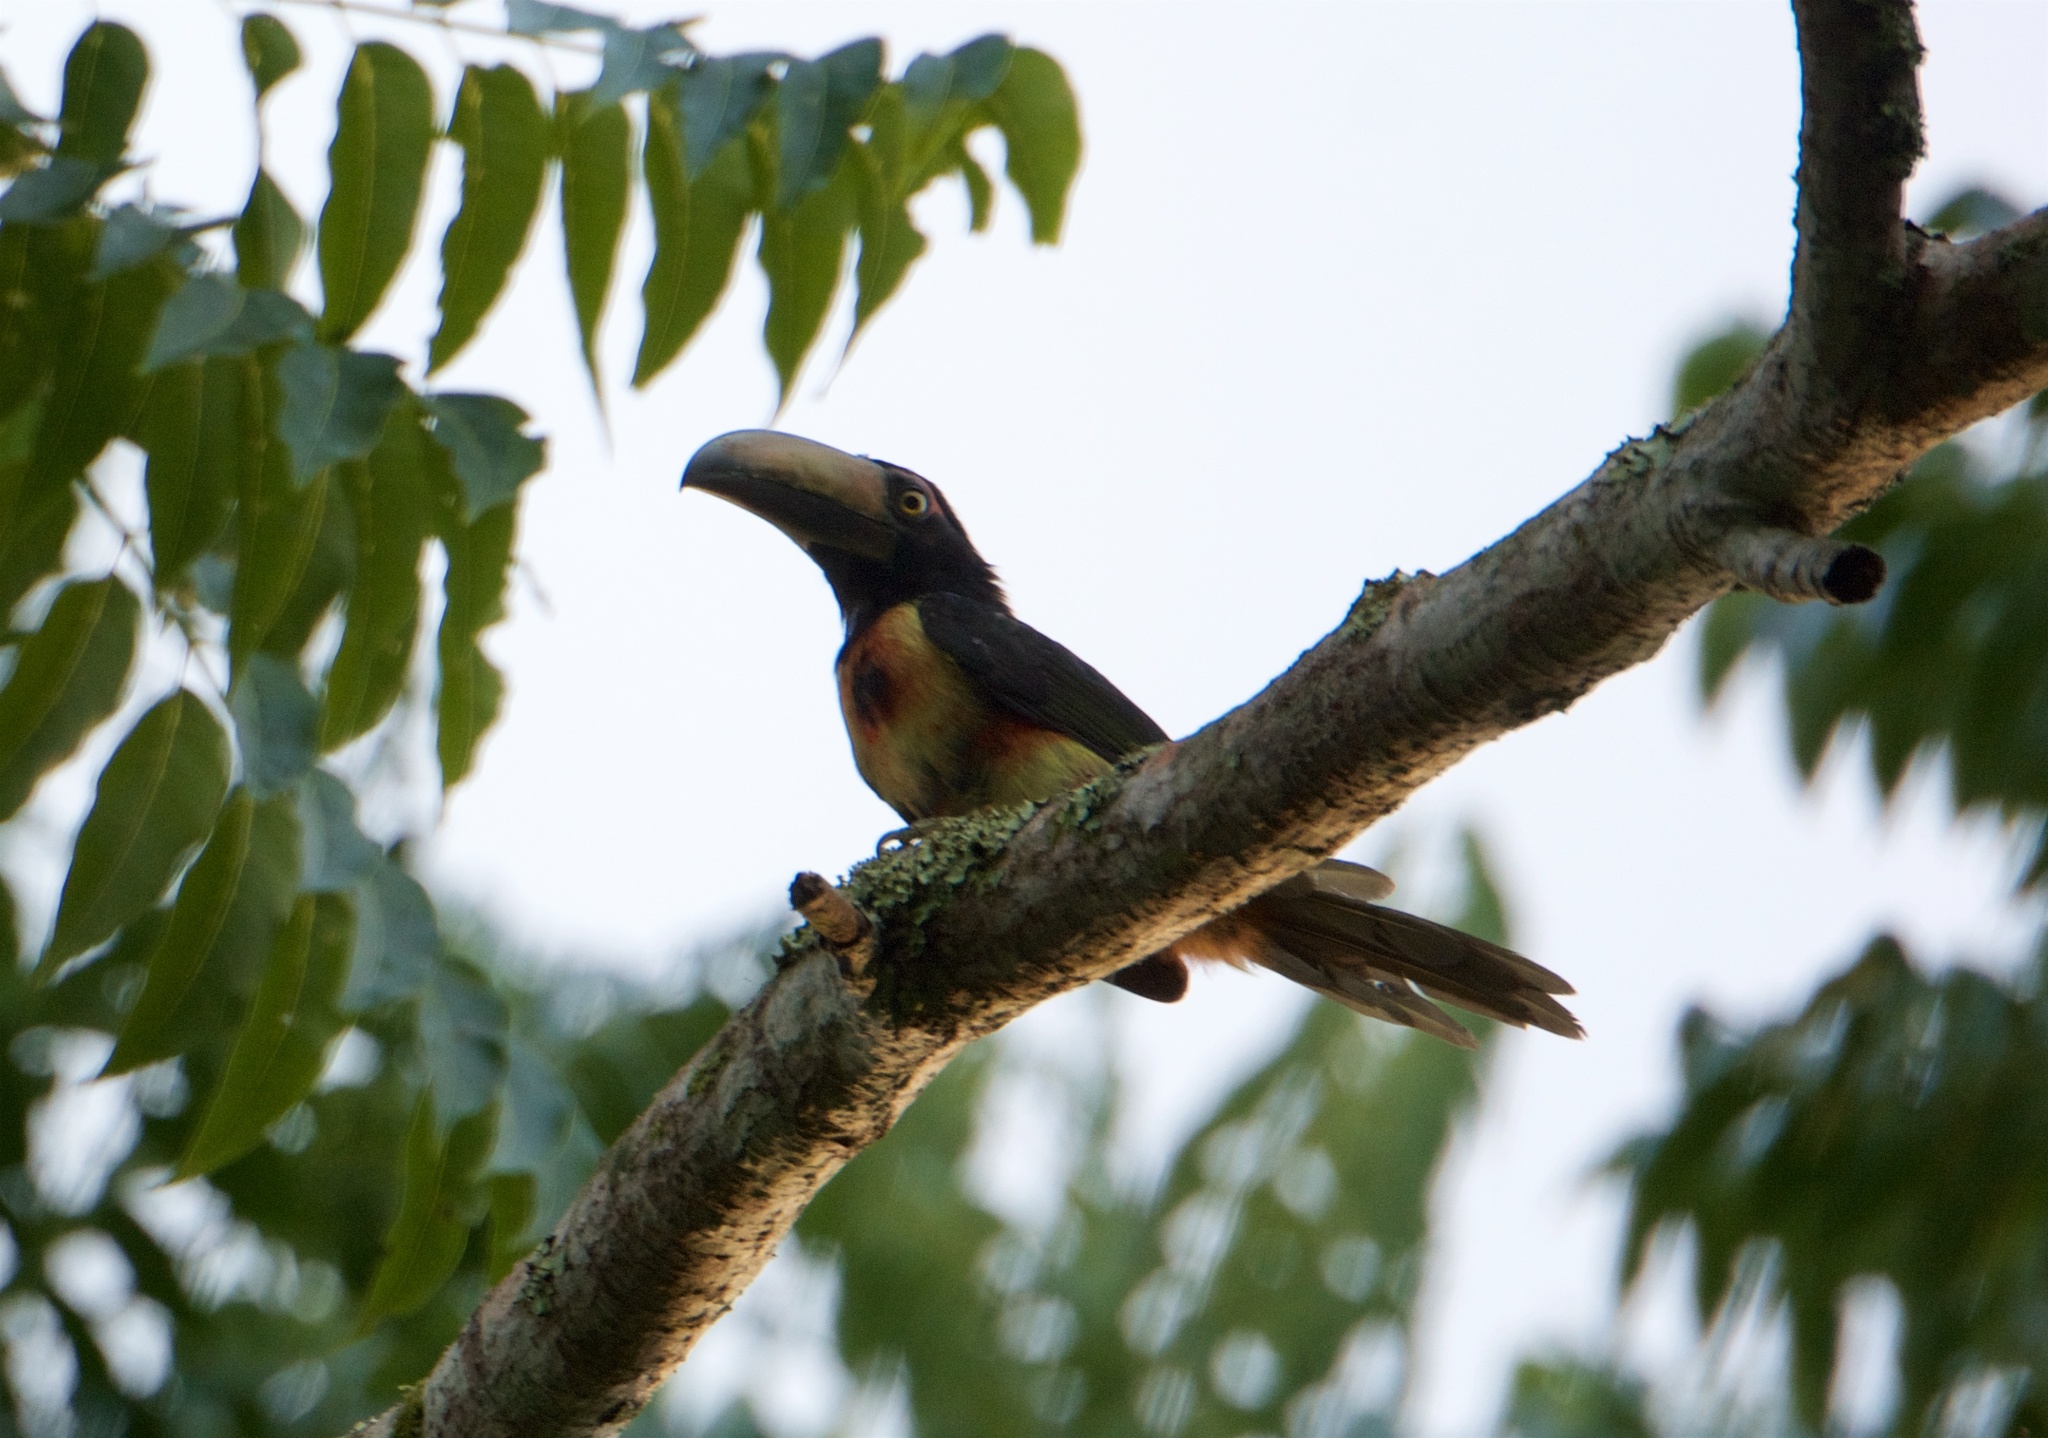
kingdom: Animalia
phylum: Chordata
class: Aves
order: Piciformes
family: Ramphastidae
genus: Pteroglossus
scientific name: Pteroglossus torquatus
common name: Collared aracari
